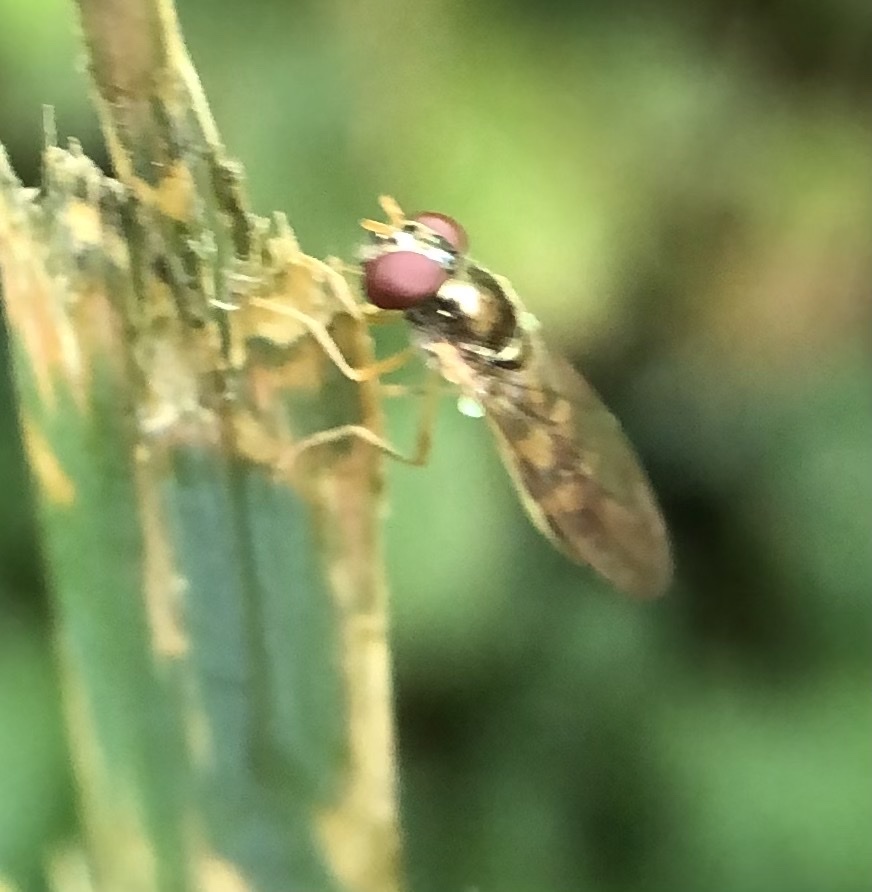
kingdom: Animalia
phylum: Arthropoda
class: Insecta
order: Diptera
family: Syrphidae
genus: Melanostoma
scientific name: Melanostoma mellina
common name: Hover fly
